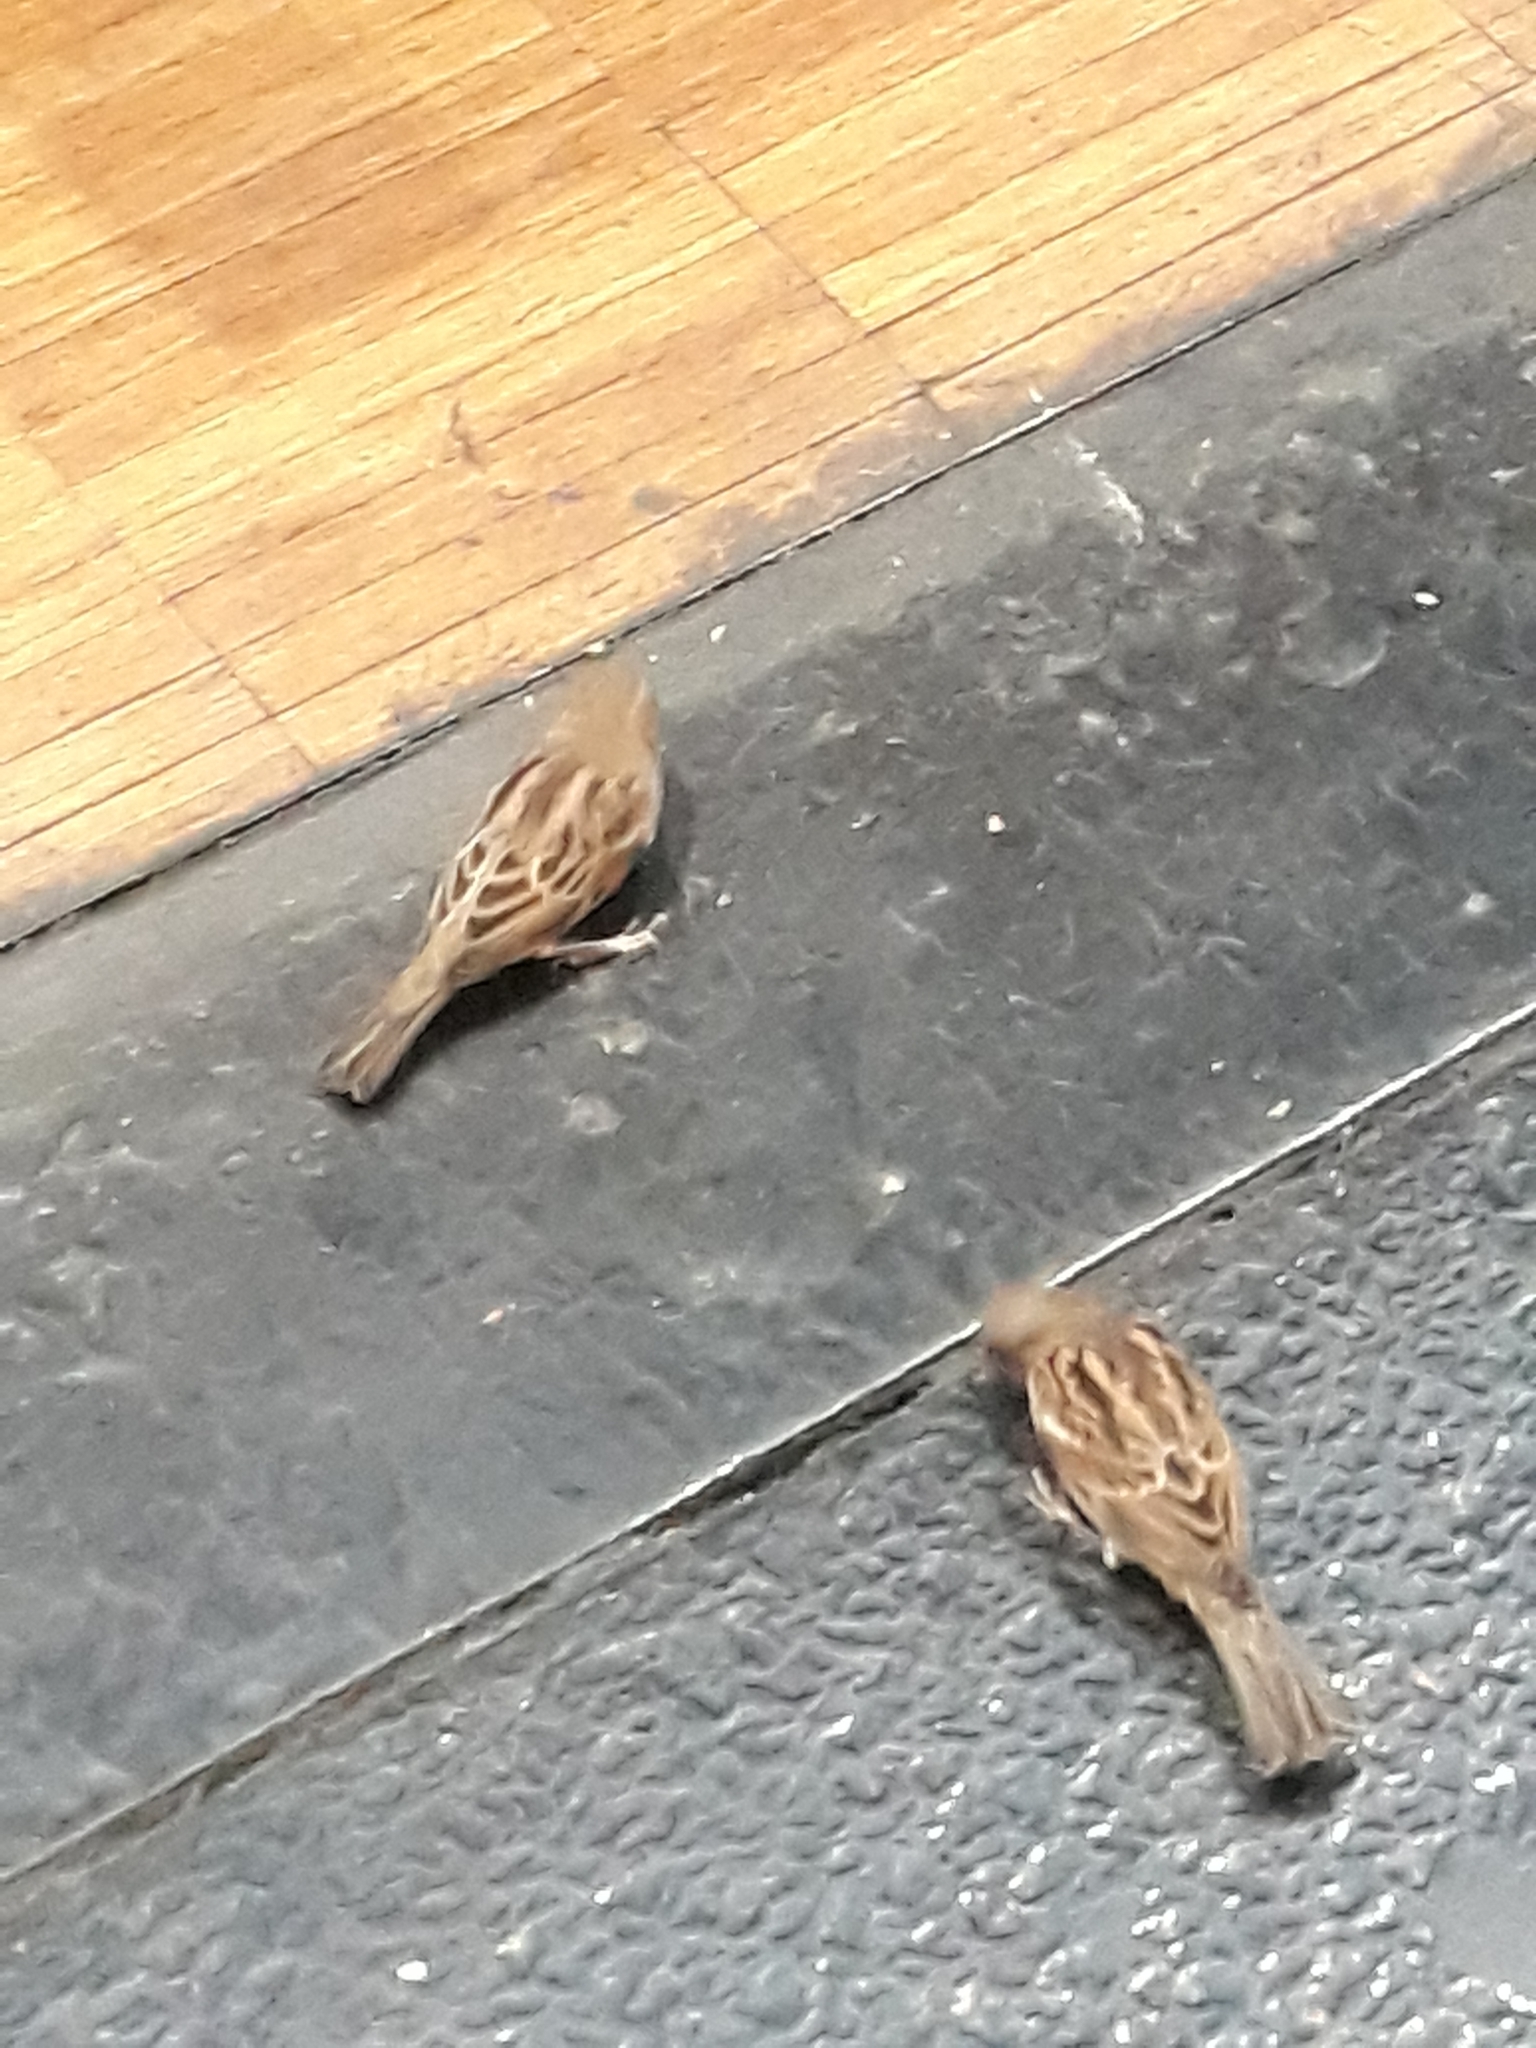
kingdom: Animalia
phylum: Chordata
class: Aves
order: Passeriformes
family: Passeridae
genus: Passer
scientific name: Passer domesticus
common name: House sparrow
